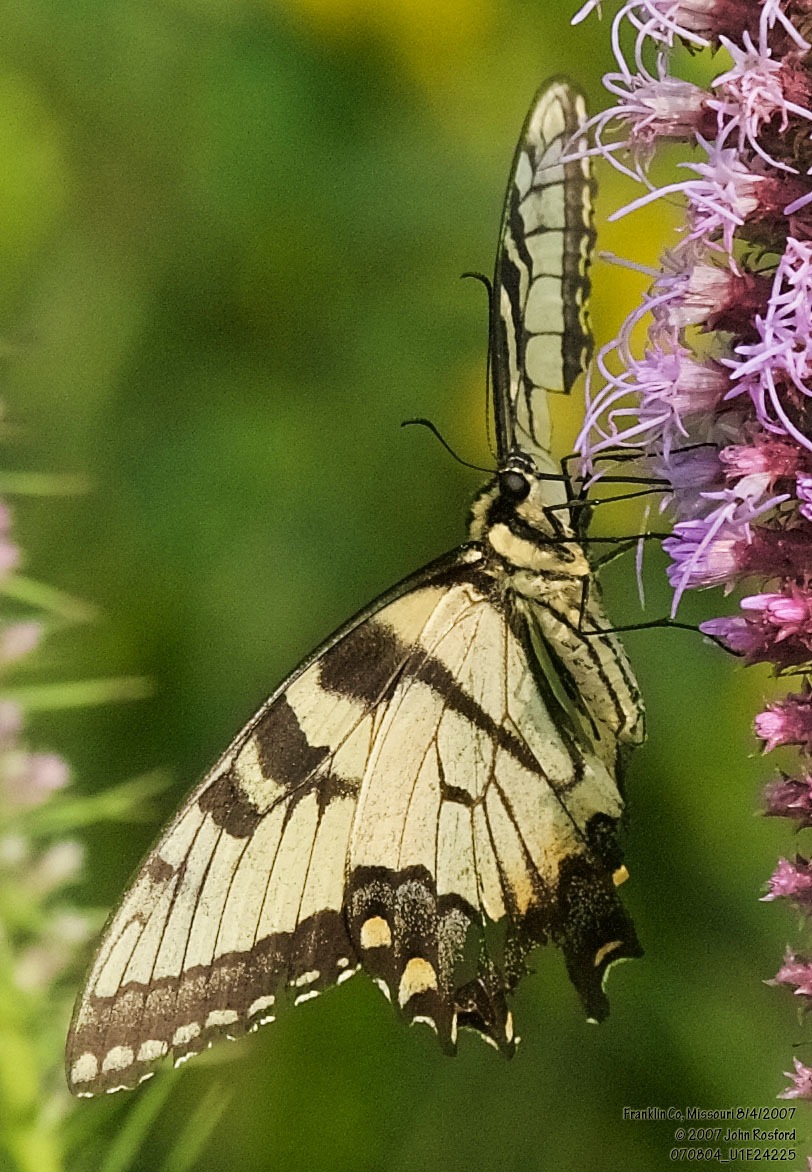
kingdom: Animalia
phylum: Arthropoda
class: Insecta
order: Lepidoptera
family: Papilionidae
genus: Papilio
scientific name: Papilio glaucus
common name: Tiger swallowtail
